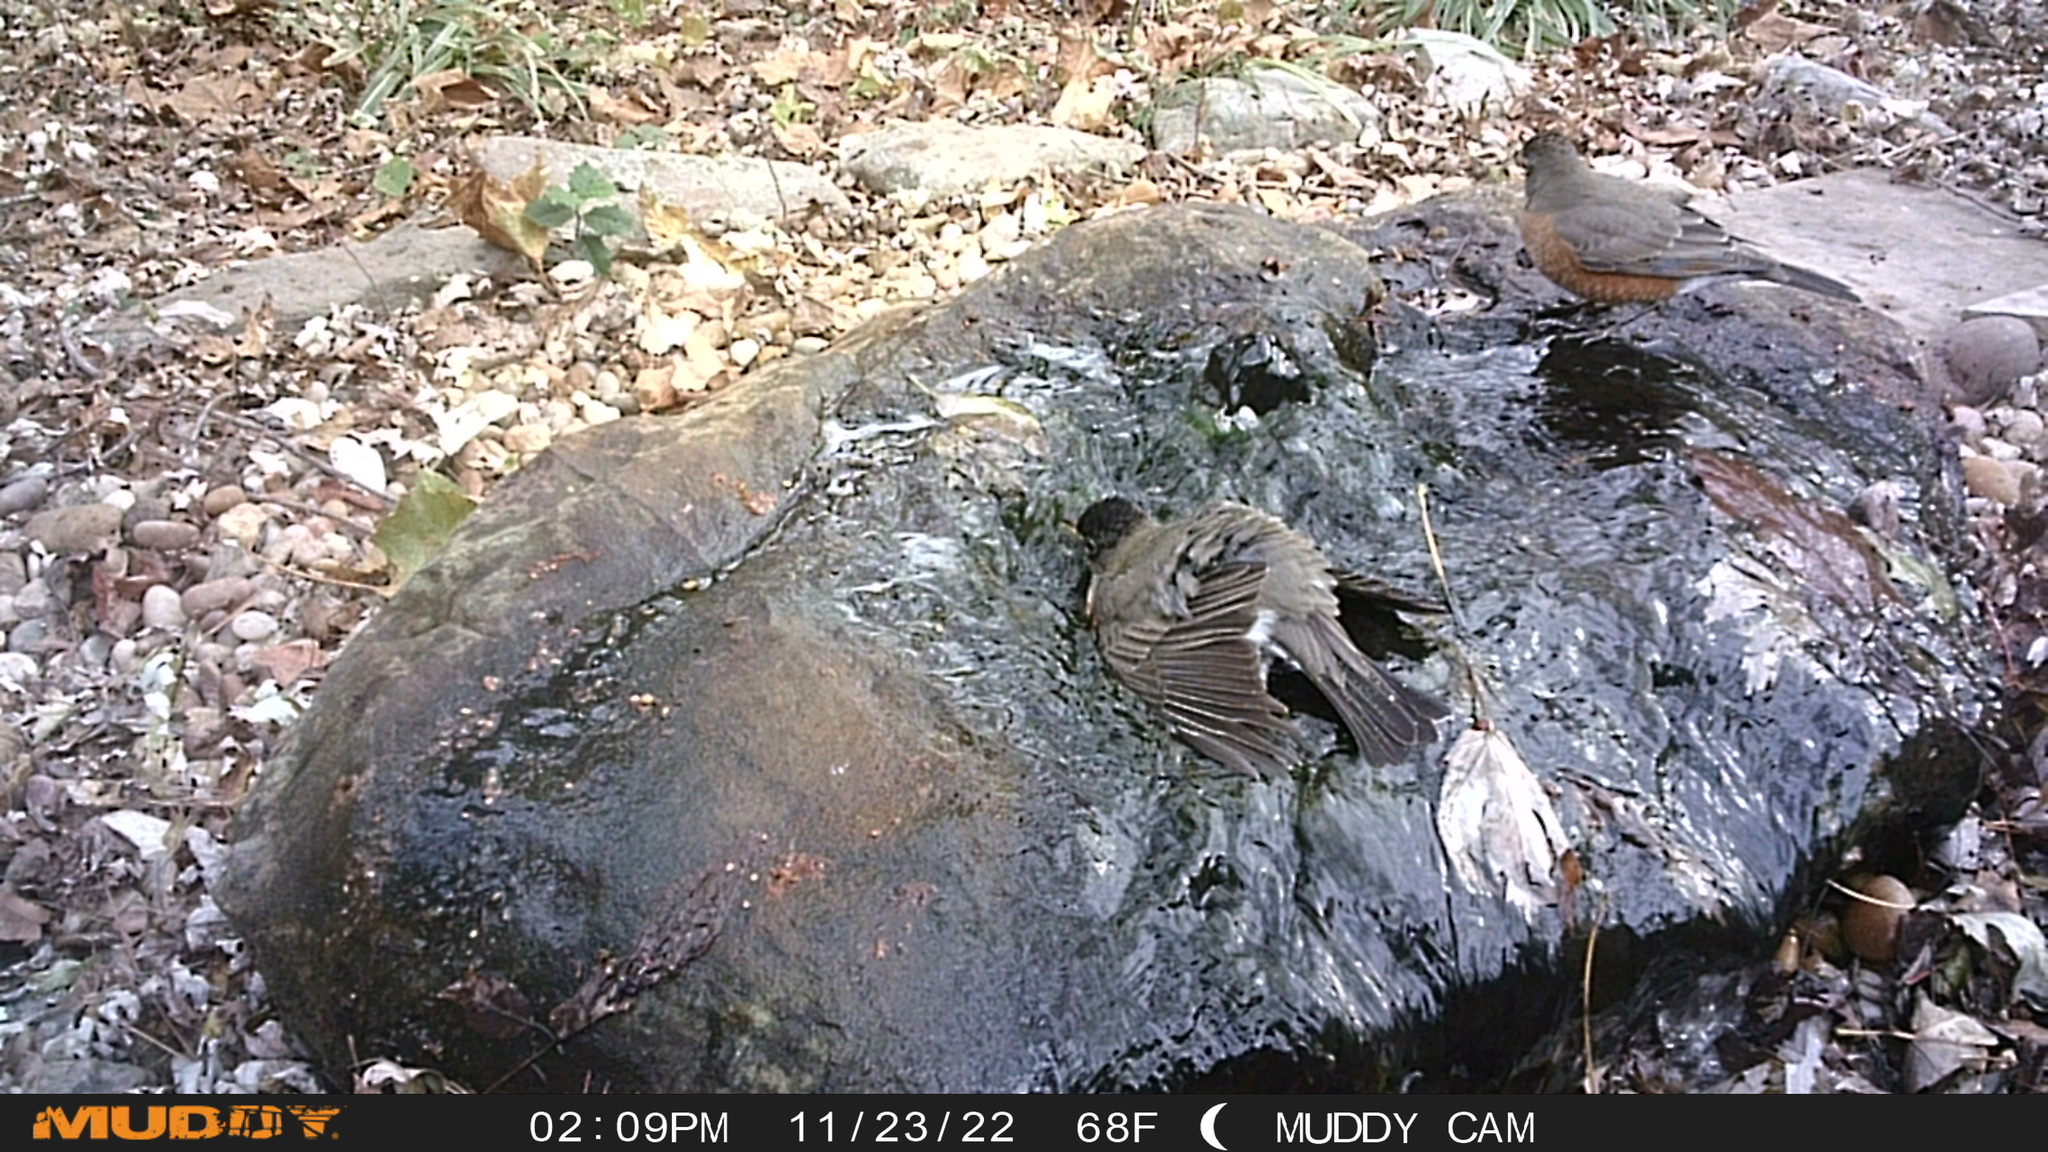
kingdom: Animalia
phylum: Chordata
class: Aves
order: Passeriformes
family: Turdidae
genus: Turdus
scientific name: Turdus migratorius
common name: American robin
